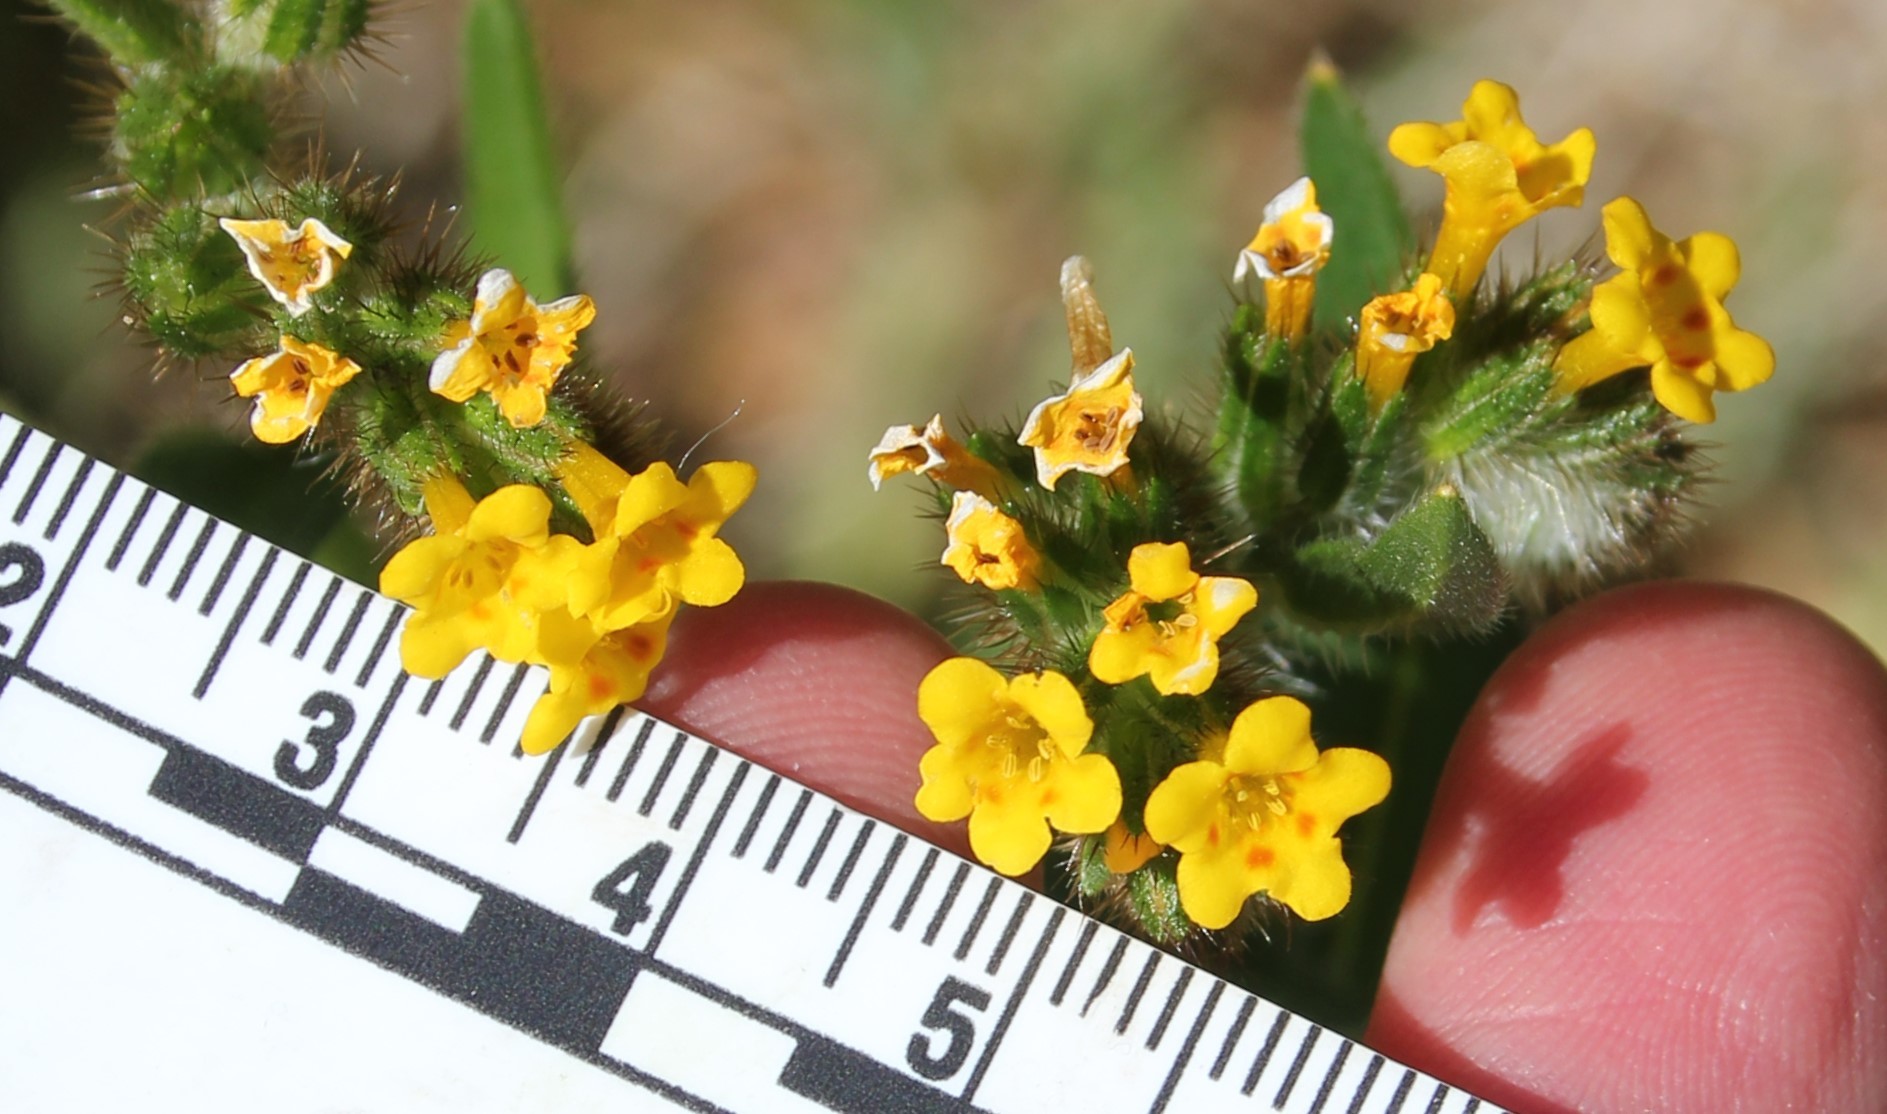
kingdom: Plantae
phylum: Tracheophyta
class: Magnoliopsida
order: Boraginales
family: Boraginaceae
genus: Amsinckia
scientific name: Amsinckia menziesii
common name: Menzies' fiddleneck
